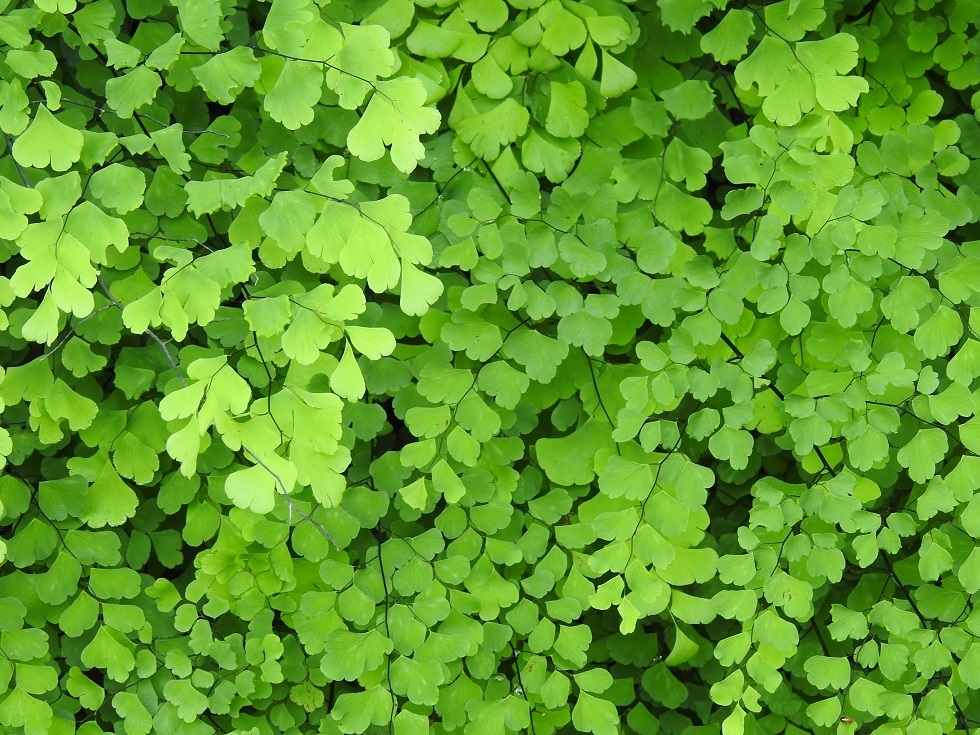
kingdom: Plantae
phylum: Tracheophyta
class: Polypodiopsida
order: Polypodiales
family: Pteridaceae
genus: Adiantum
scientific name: Adiantum braunii
